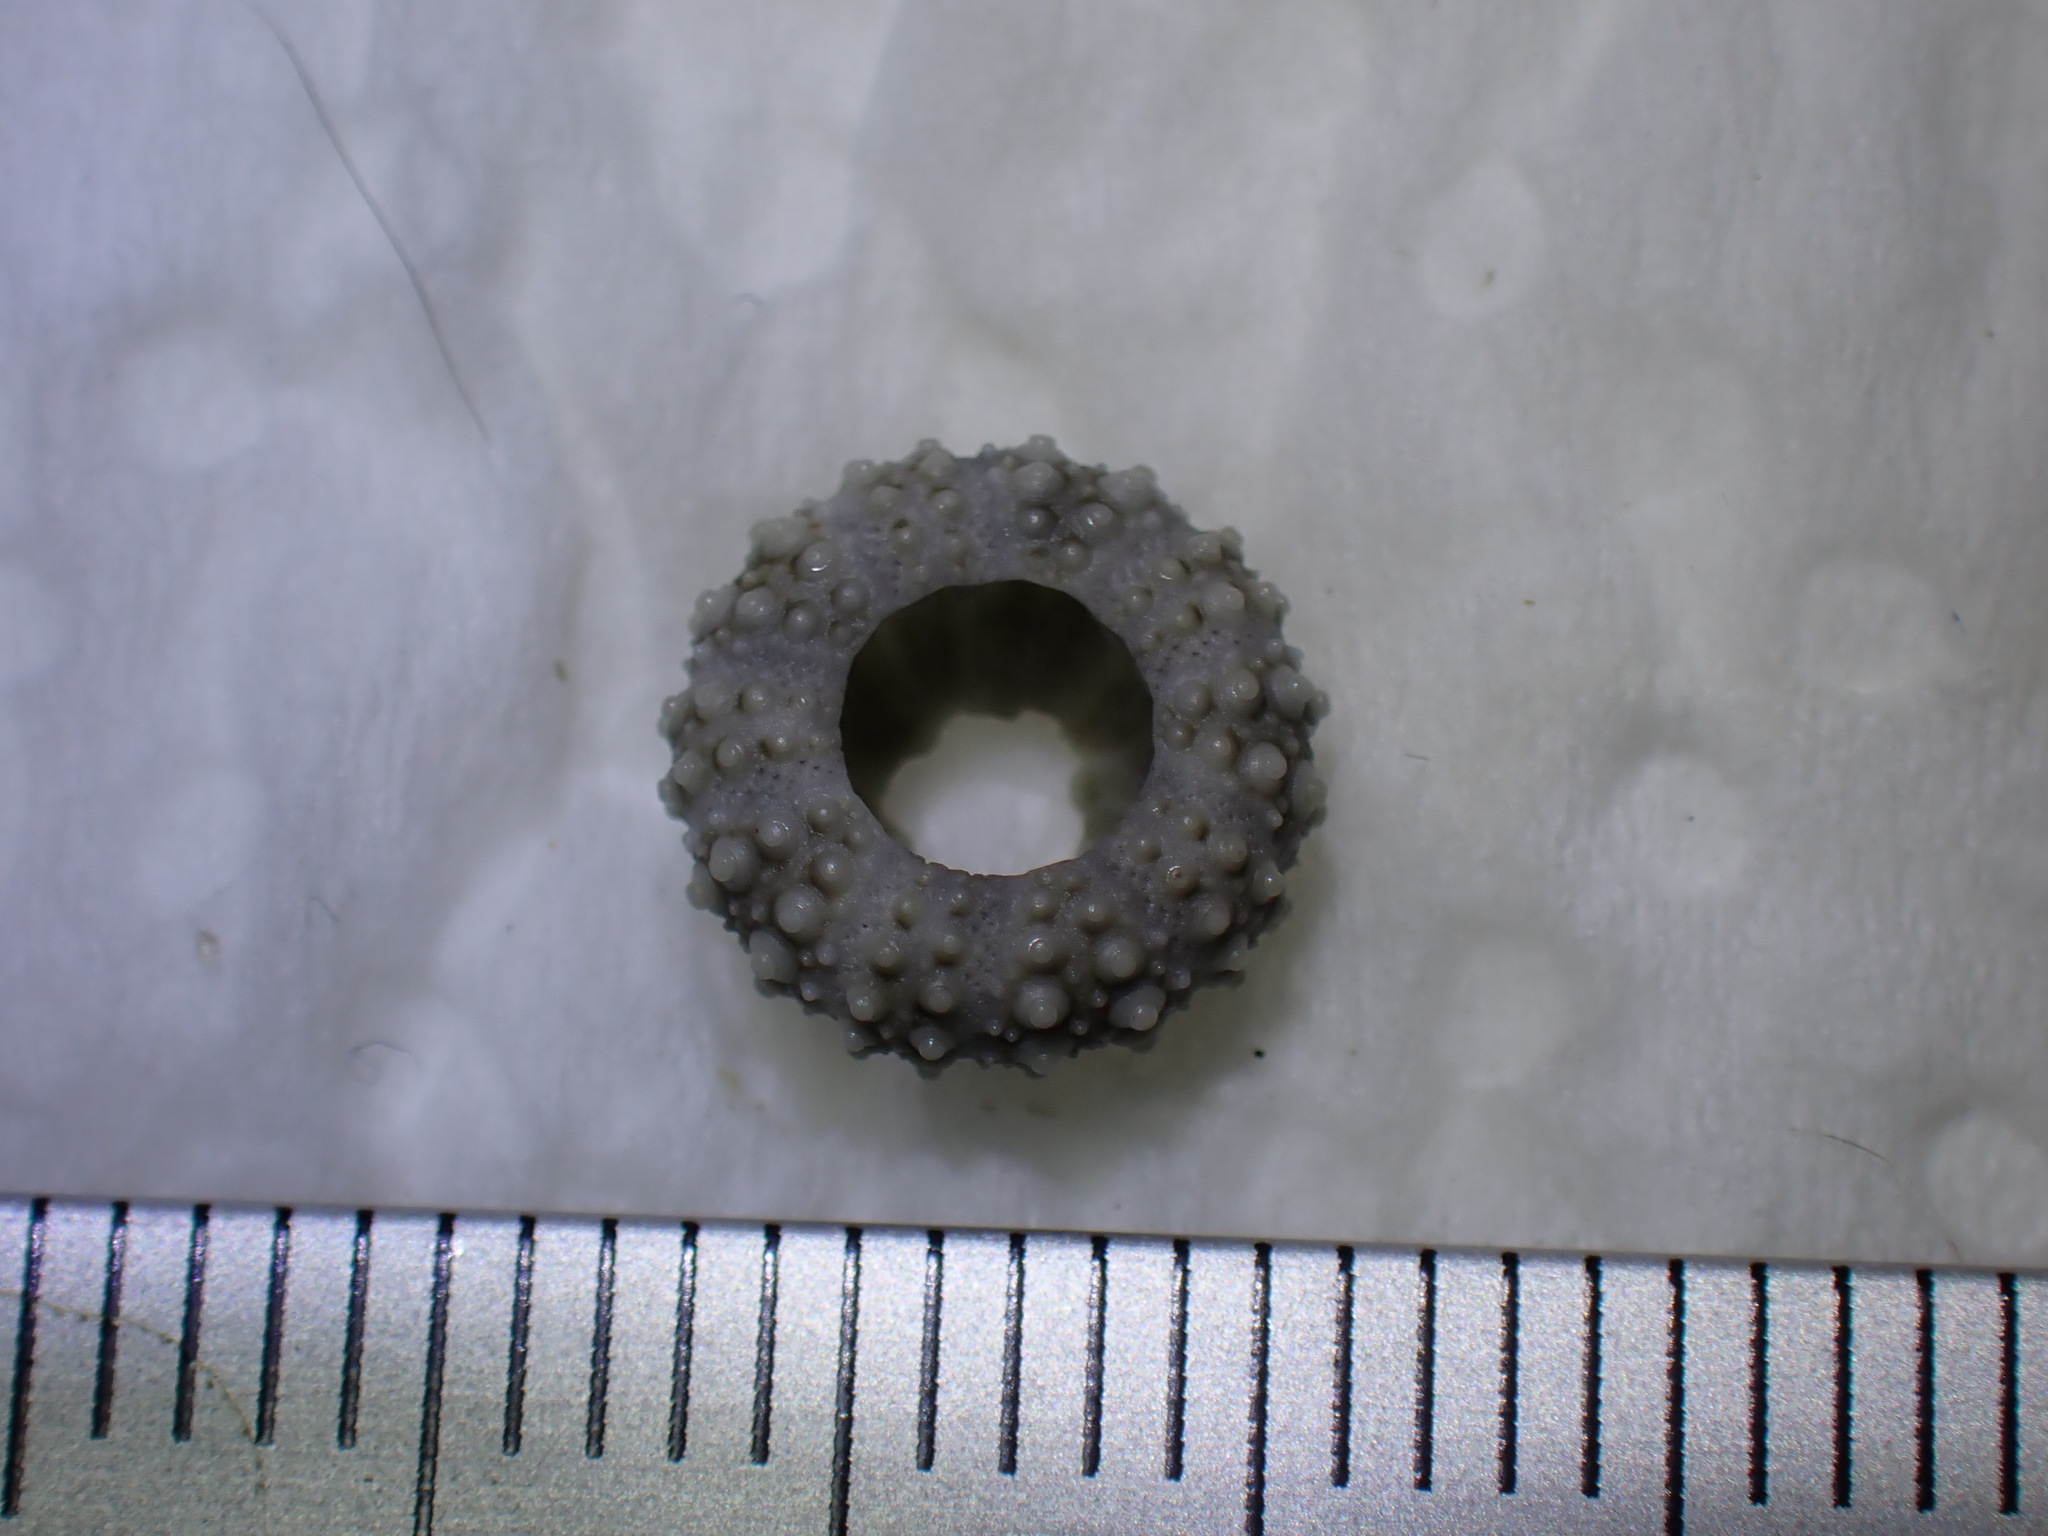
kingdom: Animalia
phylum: Echinodermata
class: Echinoidea
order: Camarodonta
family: Parechinidae
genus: Psammechinus
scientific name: Psammechinus miliaris
